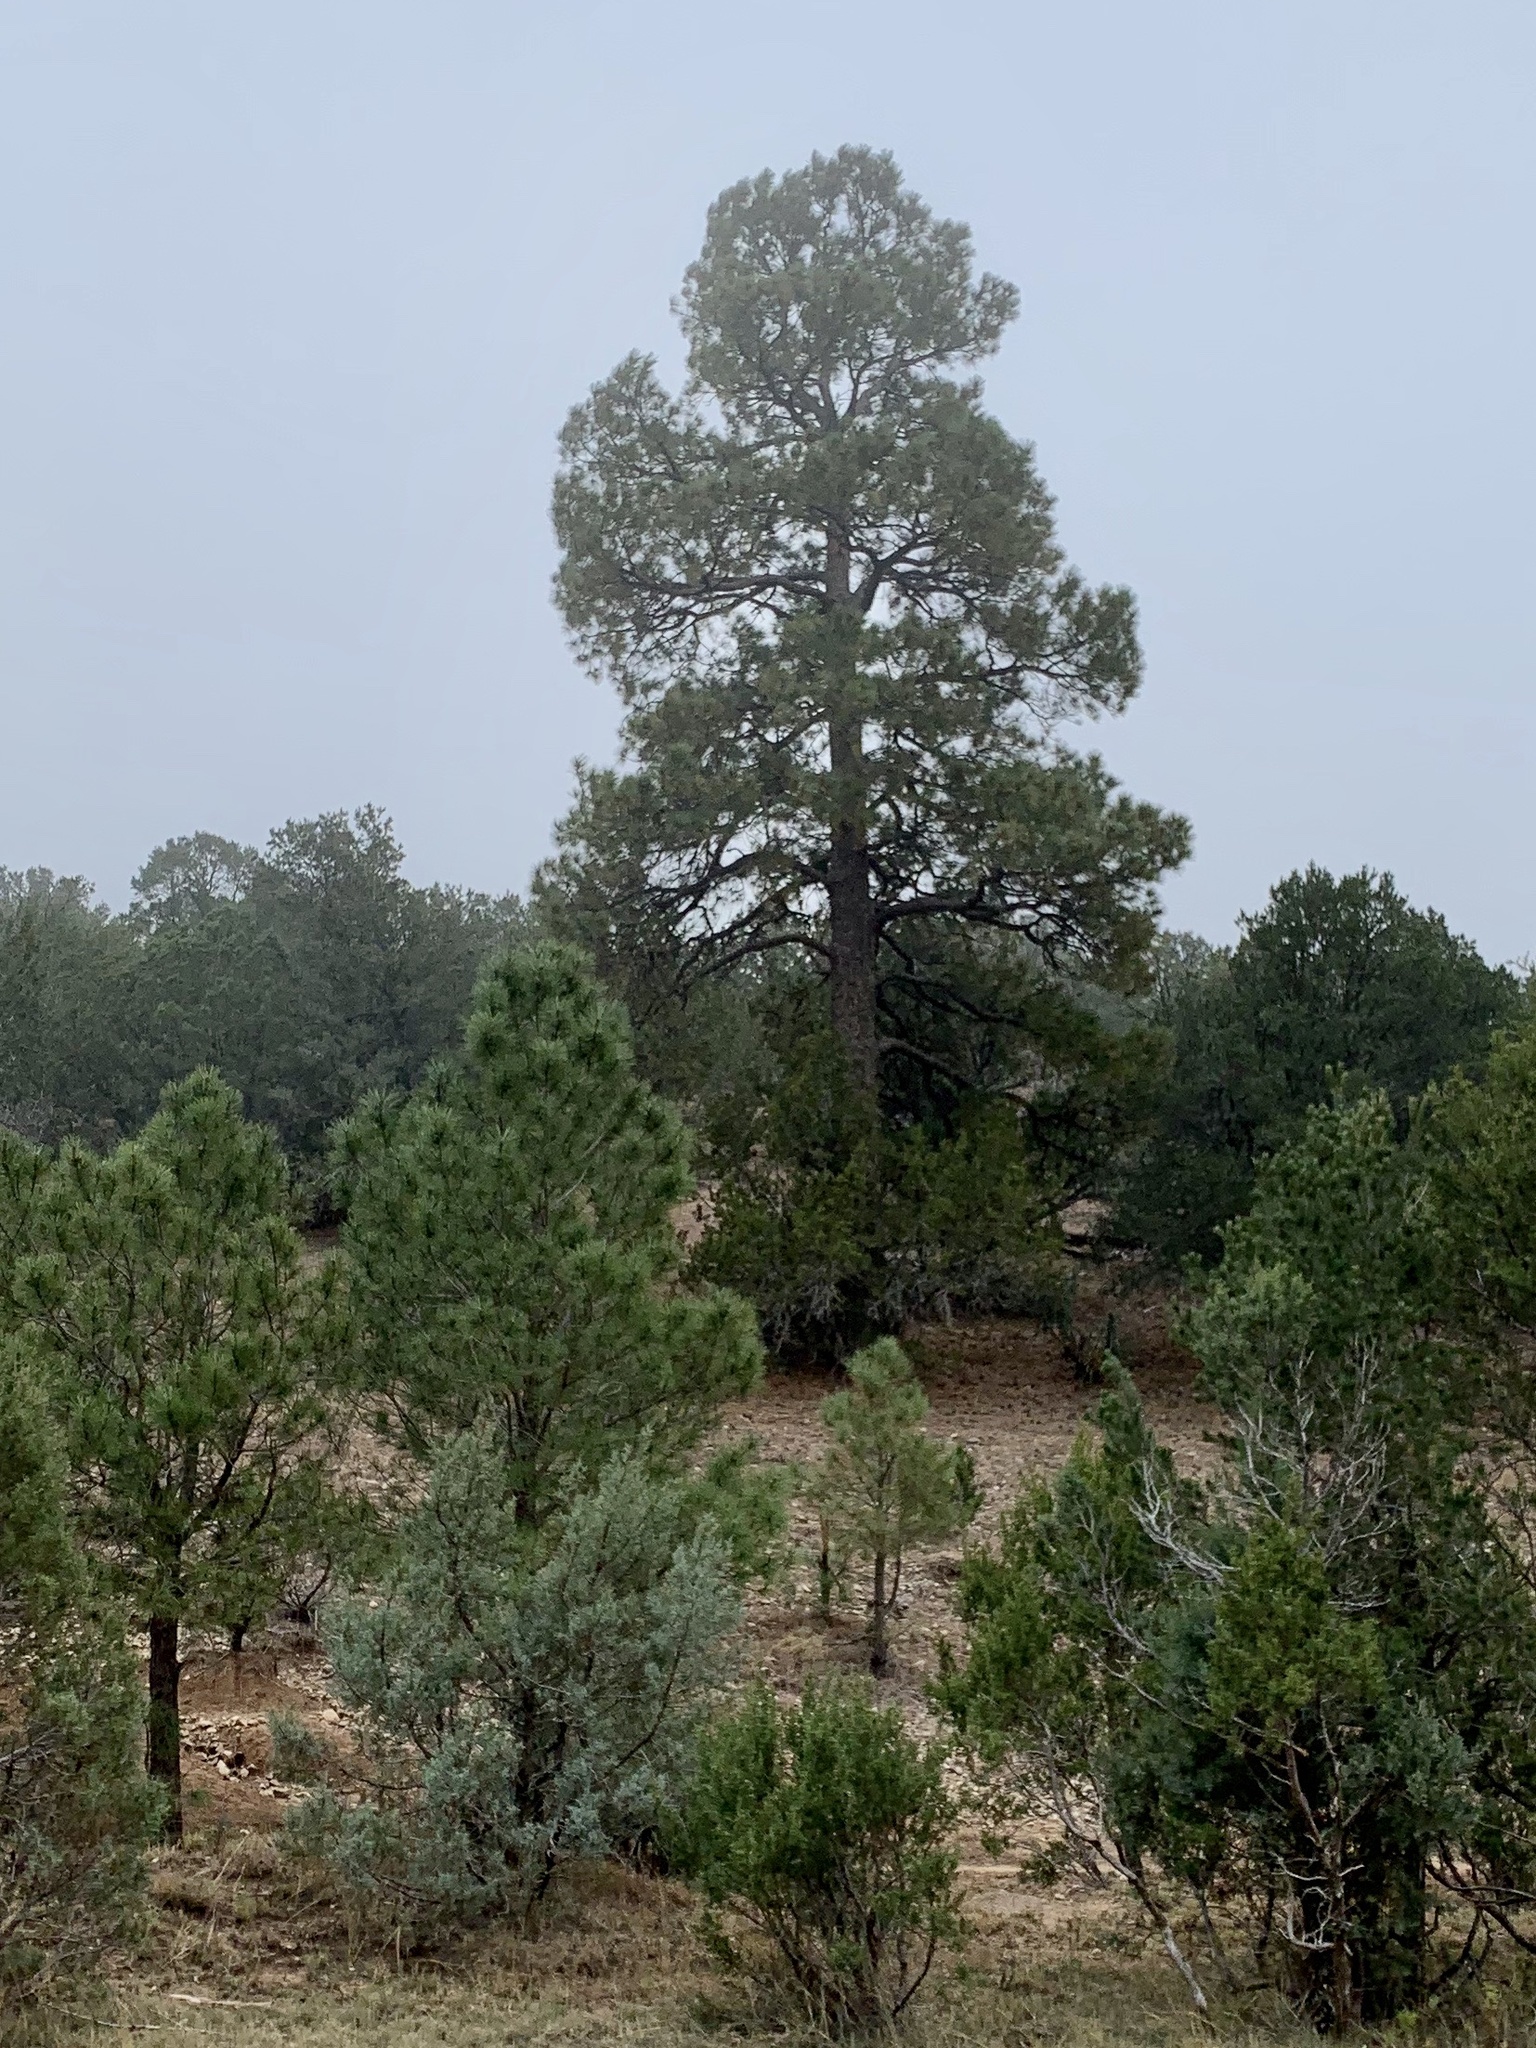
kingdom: Plantae
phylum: Tracheophyta
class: Pinopsida
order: Pinales
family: Pinaceae
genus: Pinus
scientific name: Pinus ponderosa
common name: Western yellow-pine
